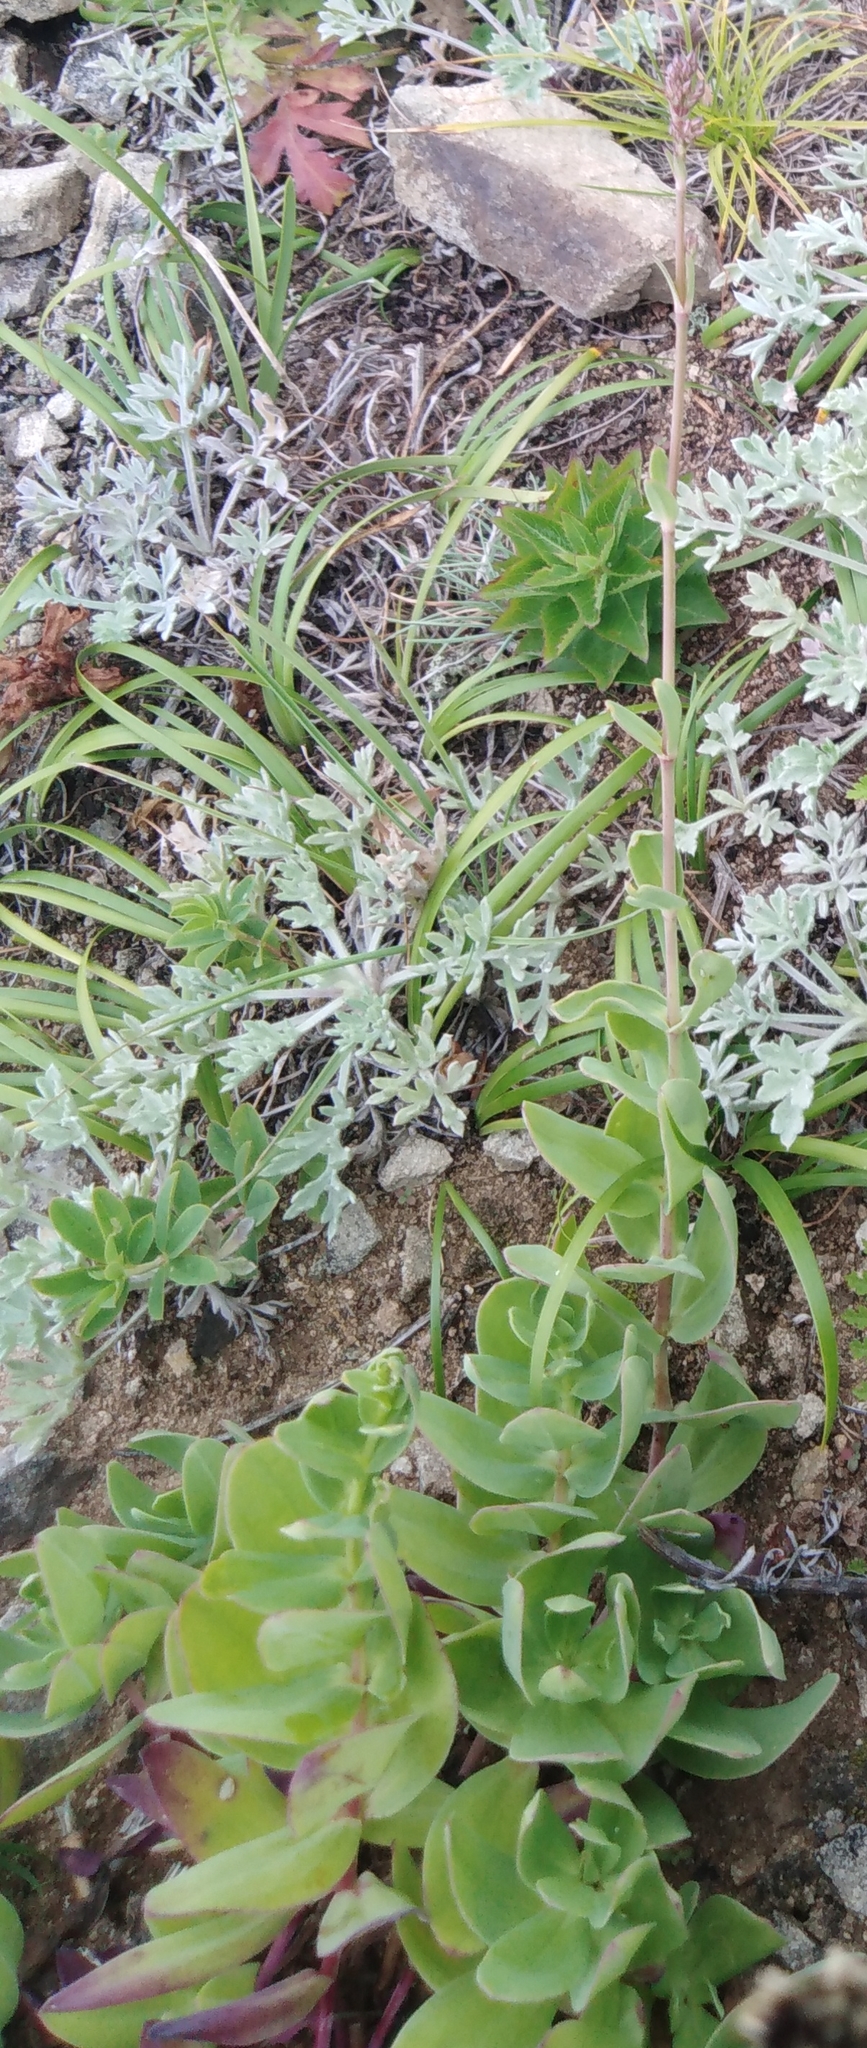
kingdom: Plantae
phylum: Tracheophyta
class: Magnoliopsida
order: Caryophyllales
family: Caryophyllaceae
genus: Gypsophila
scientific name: Gypsophila pacifica
